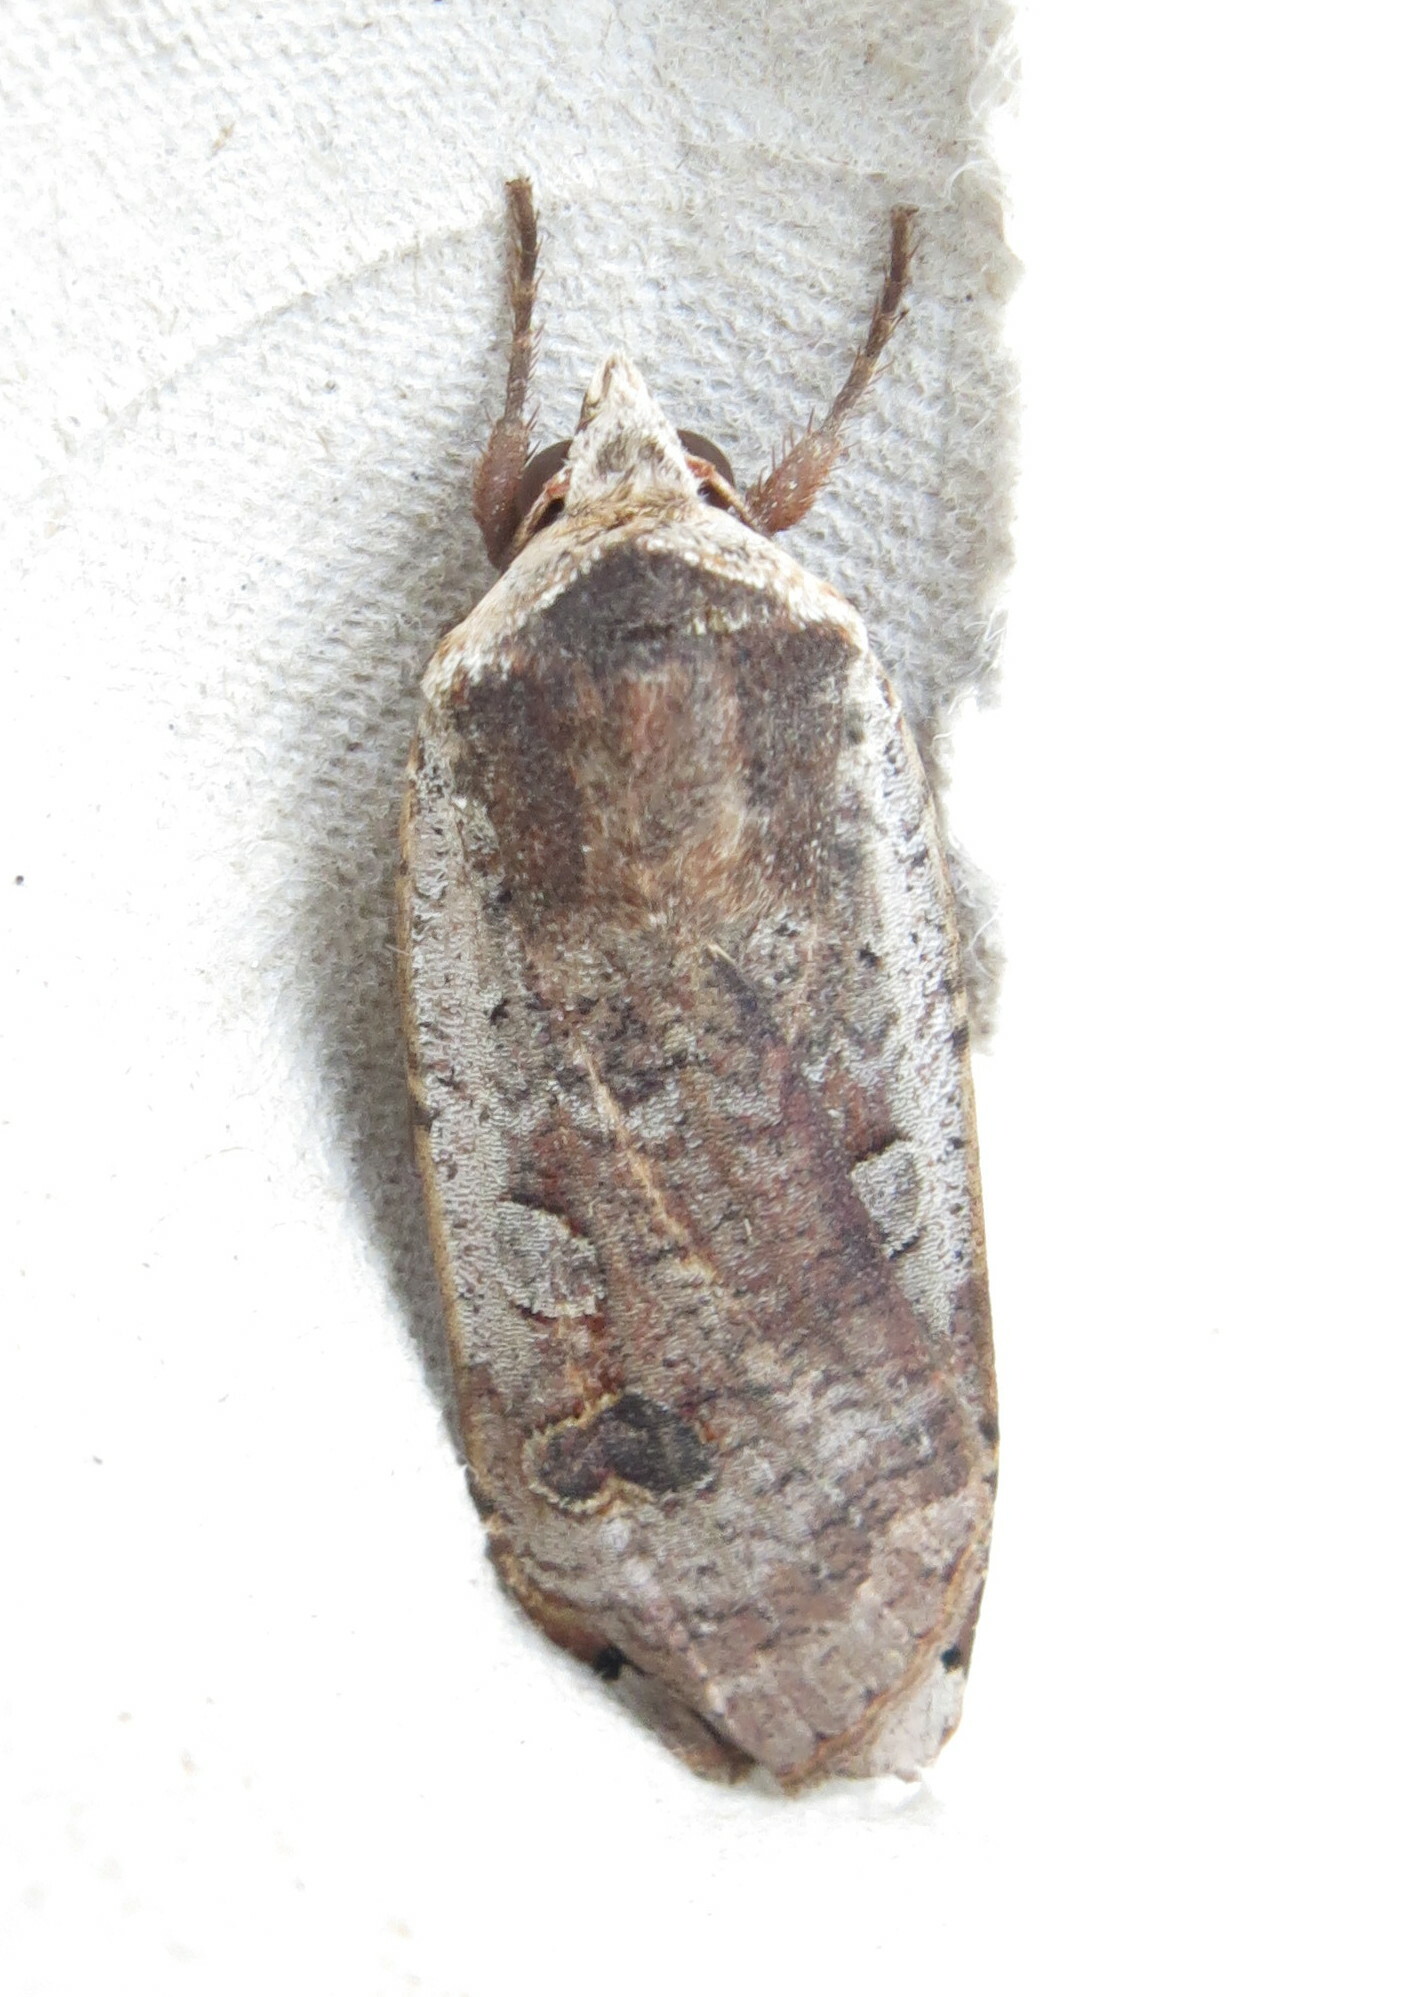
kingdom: Animalia
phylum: Arthropoda
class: Insecta
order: Lepidoptera
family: Noctuidae
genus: Noctua
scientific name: Noctua pronuba
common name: Large yellow underwing
